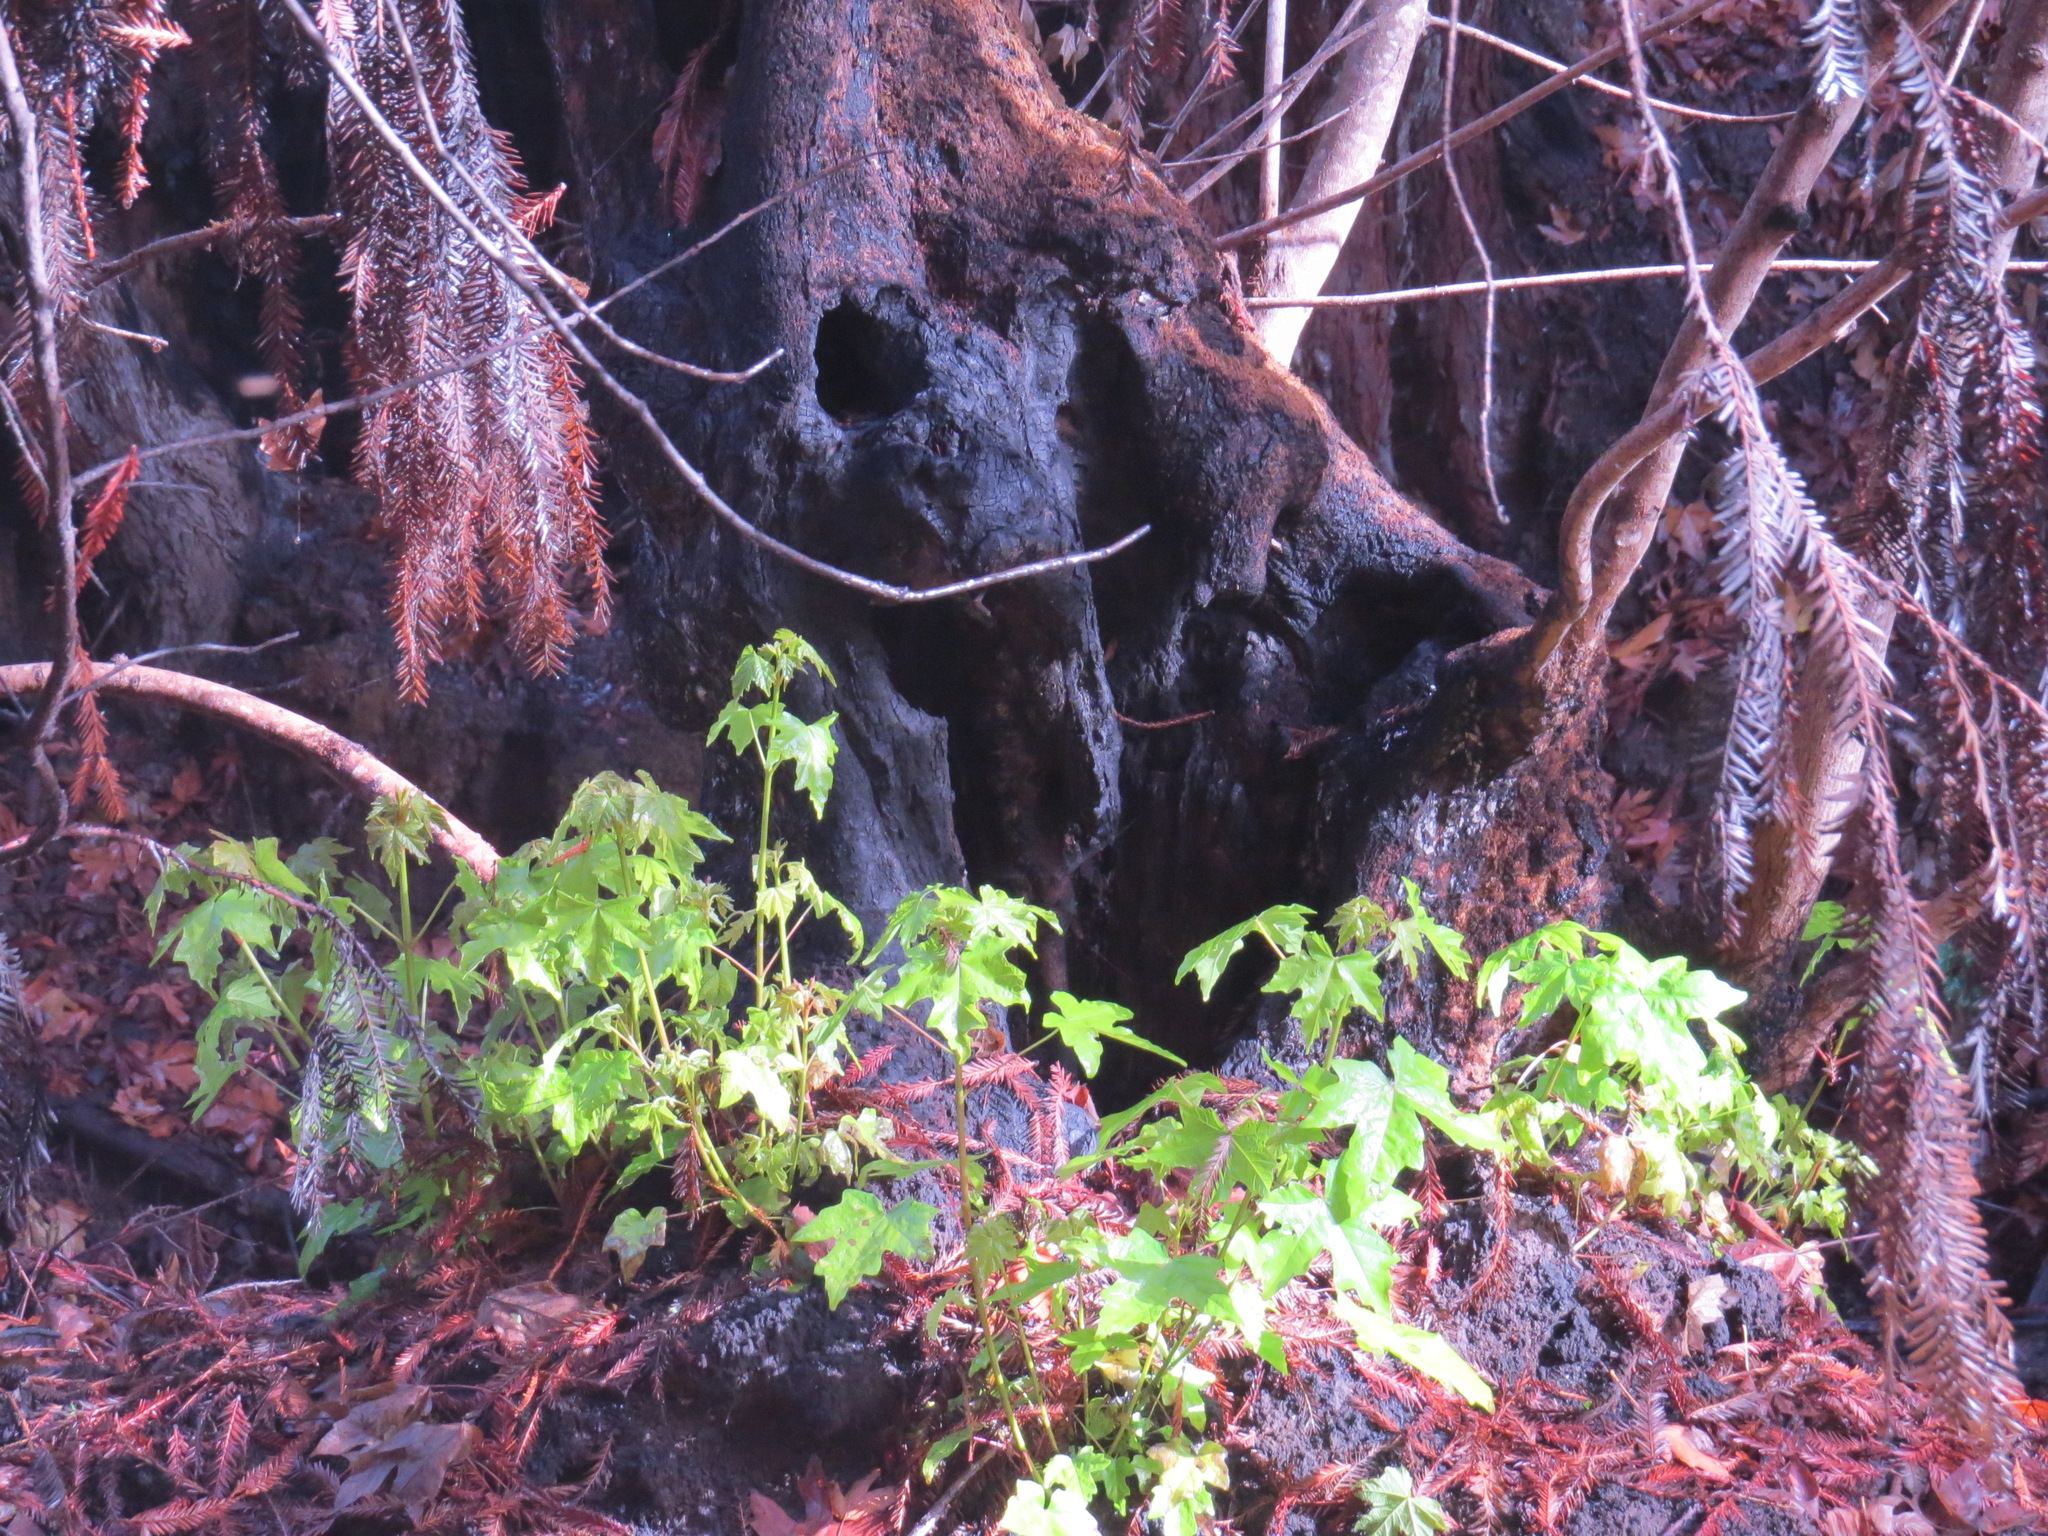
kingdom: Plantae
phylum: Tracheophyta
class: Magnoliopsida
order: Sapindales
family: Sapindaceae
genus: Acer
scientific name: Acer macrophyllum
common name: Oregon maple
